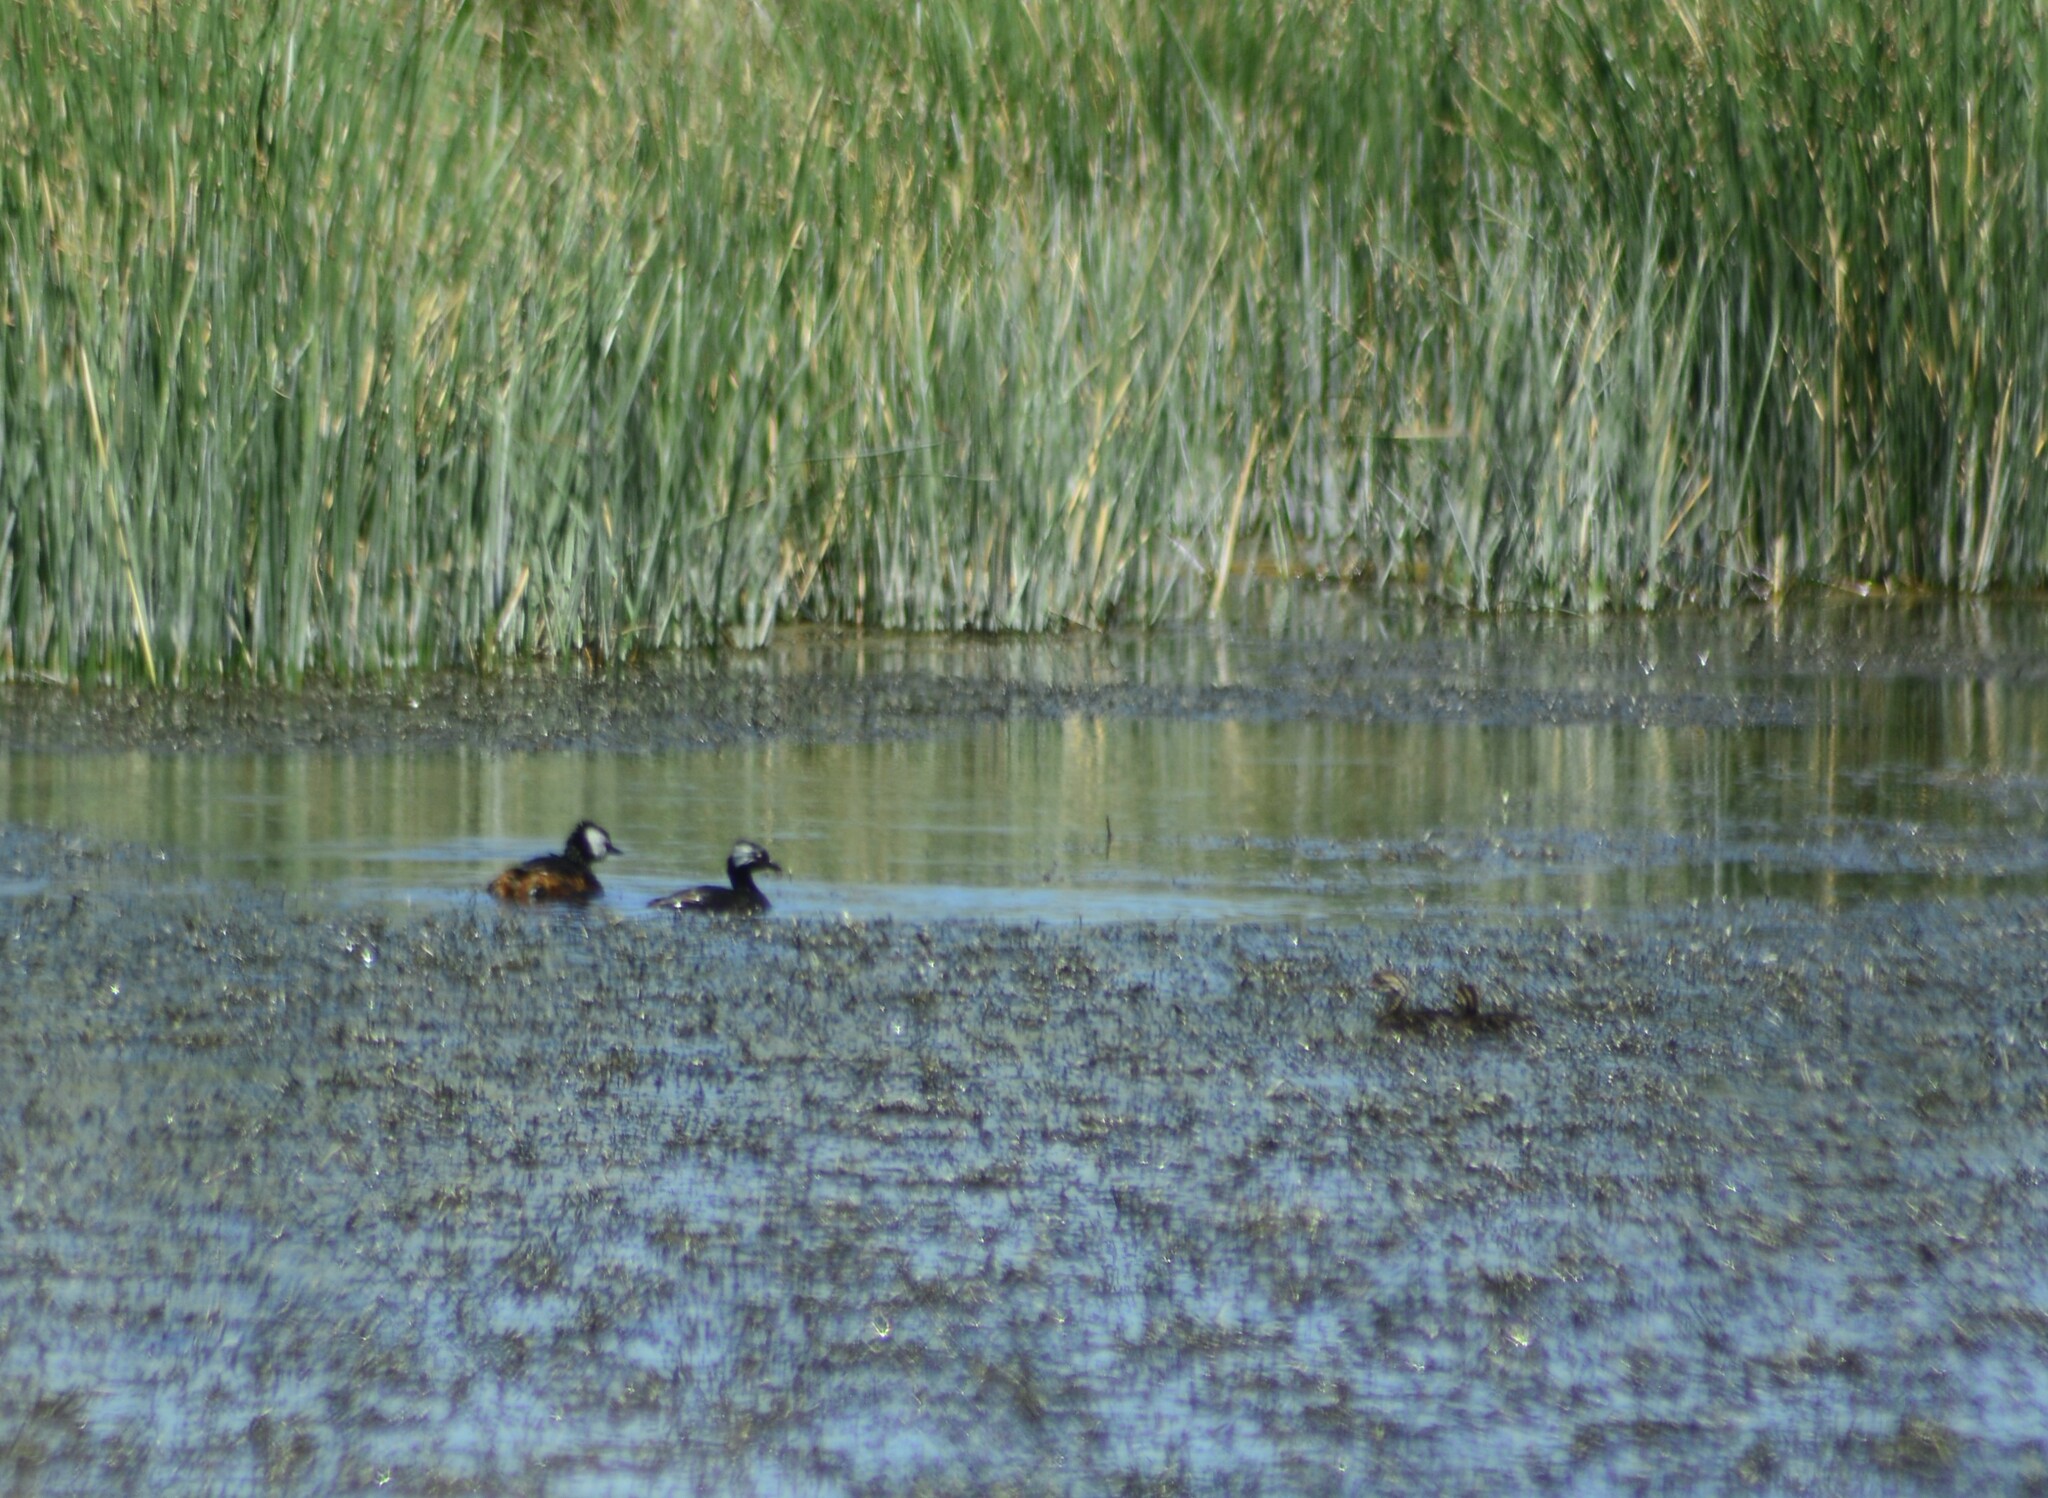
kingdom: Animalia
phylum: Chordata
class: Aves
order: Podicipediformes
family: Podicipedidae
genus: Rollandia
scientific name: Rollandia rolland
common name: White-tufted grebe
